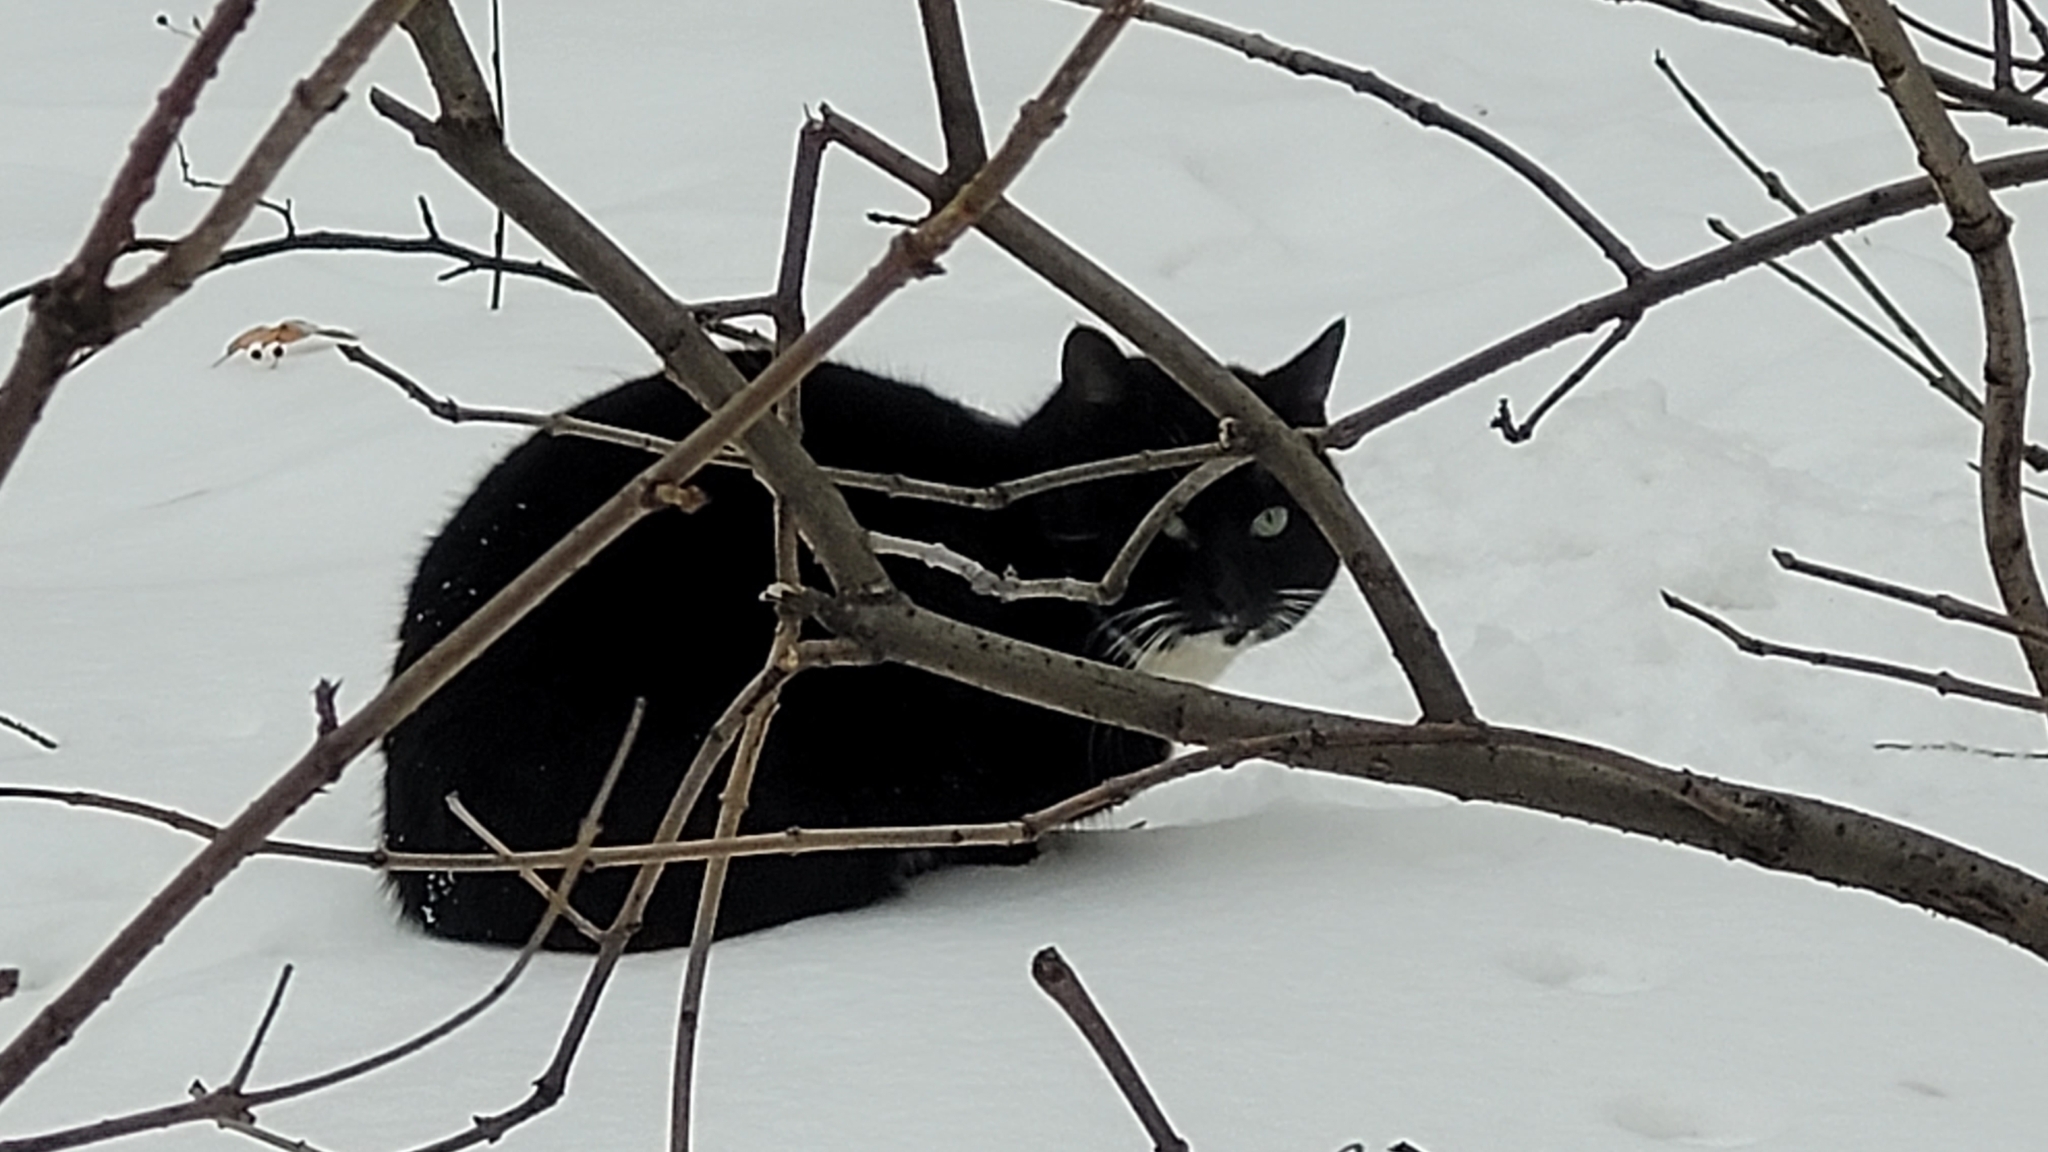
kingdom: Animalia
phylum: Chordata
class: Mammalia
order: Carnivora
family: Felidae
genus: Felis
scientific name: Felis catus
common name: Domestic cat
